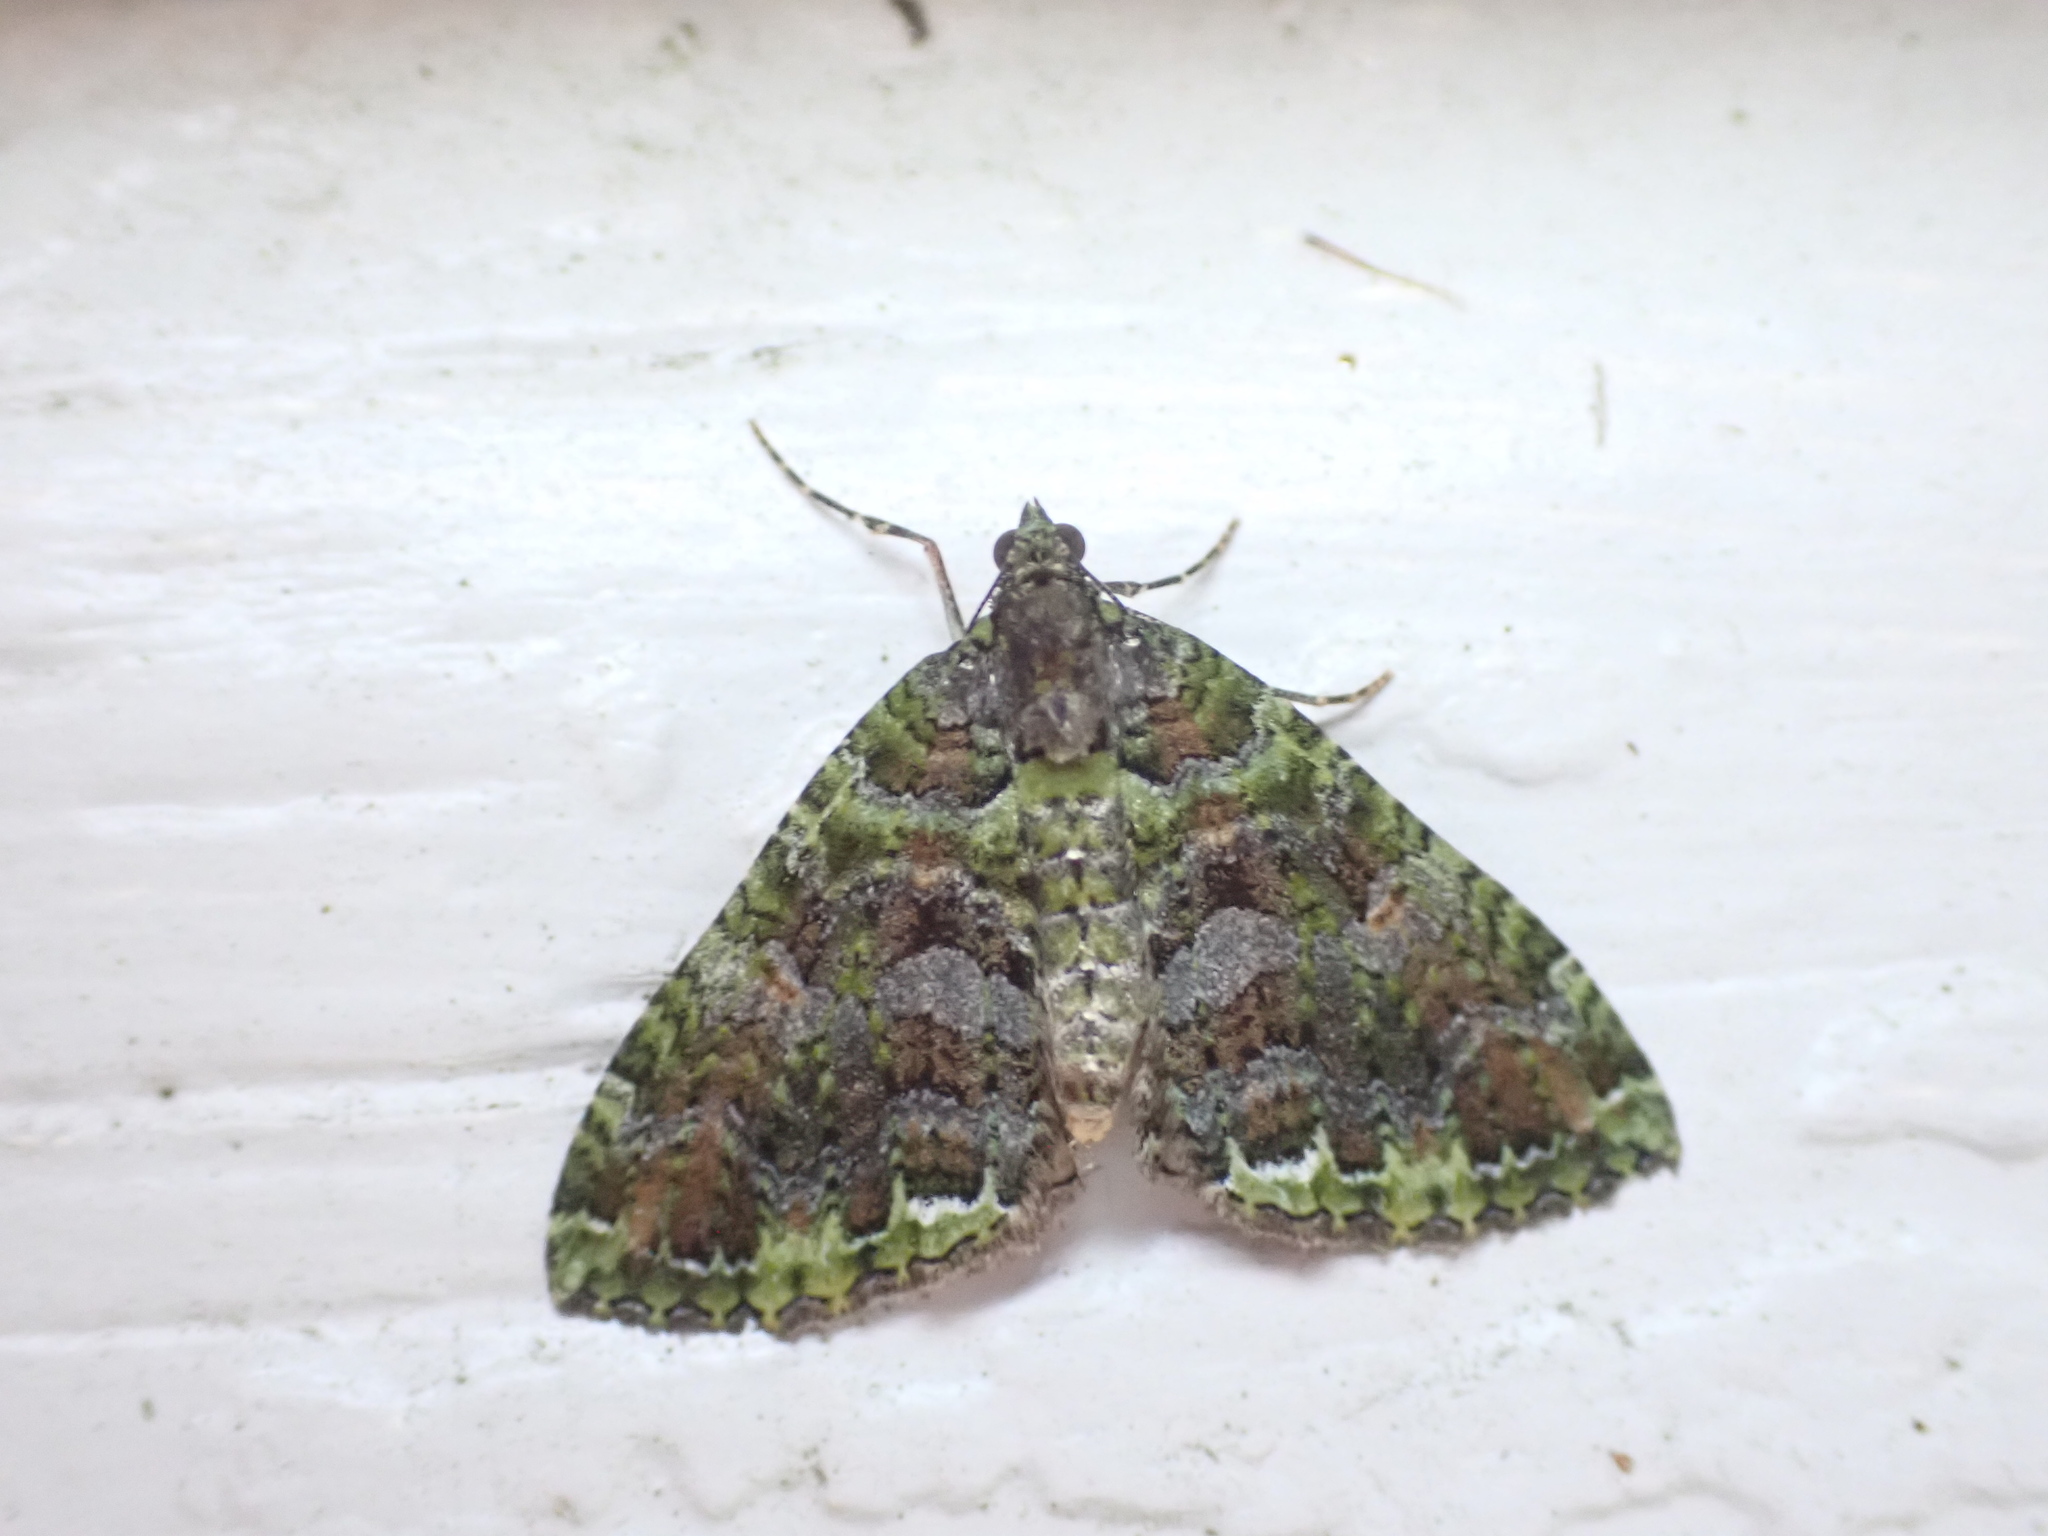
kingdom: Animalia
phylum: Arthropoda
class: Insecta
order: Lepidoptera
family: Geometridae
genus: Austrocidaria
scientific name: Austrocidaria similata
